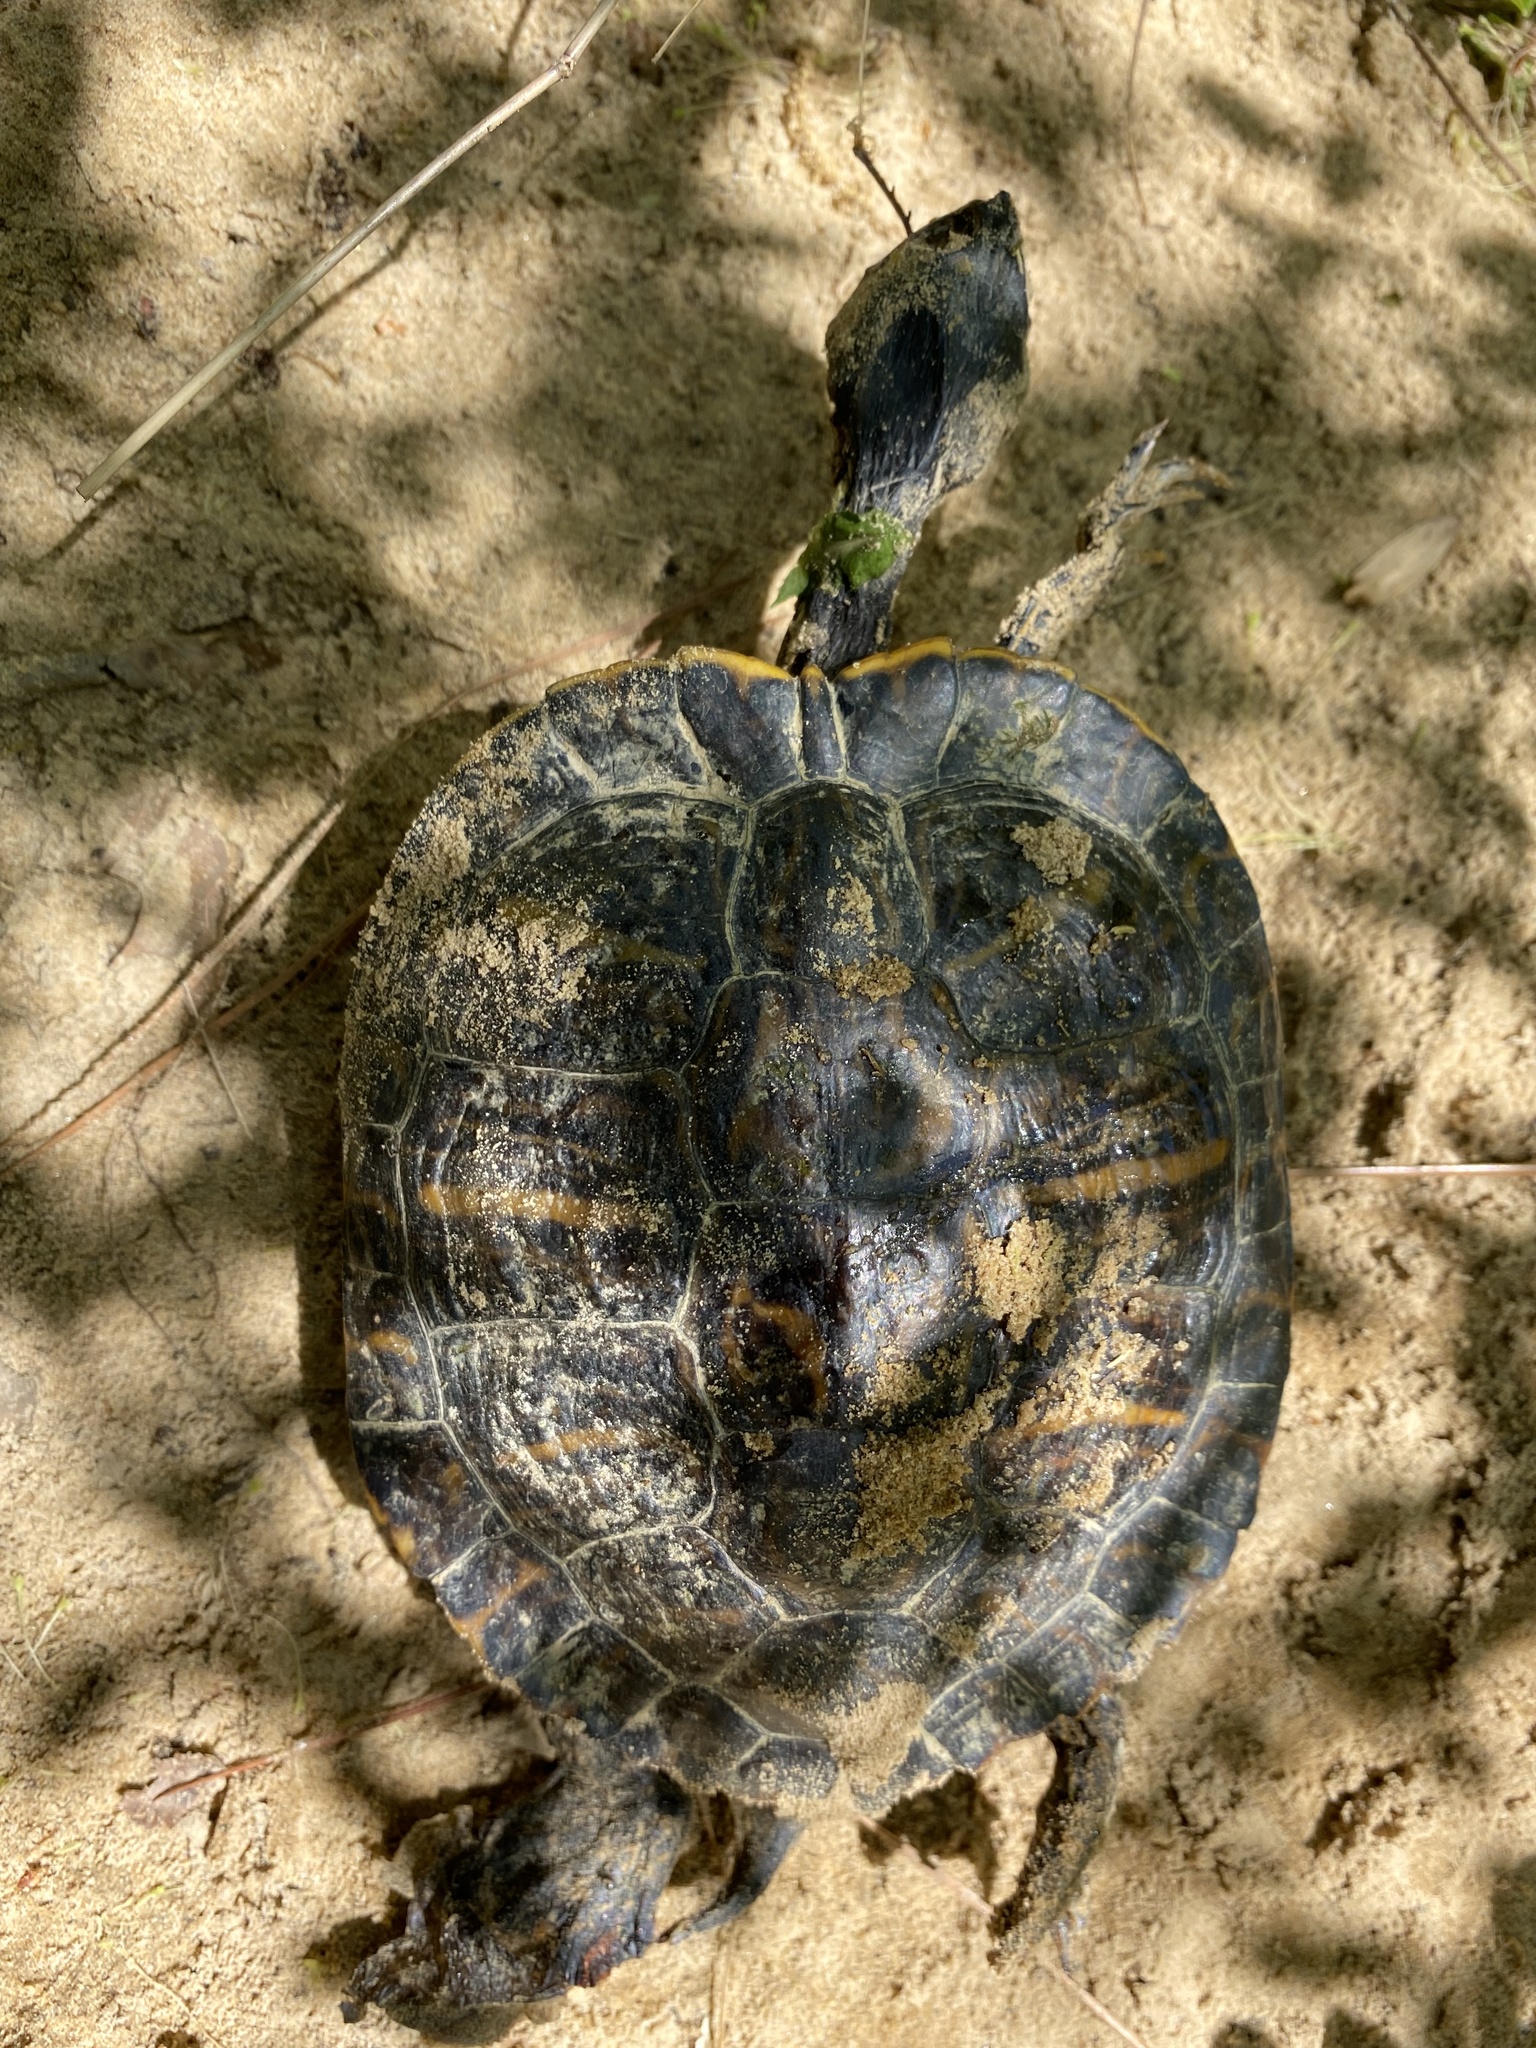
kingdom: Animalia
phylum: Chordata
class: Testudines
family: Emydidae
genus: Trachemys
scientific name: Trachemys scripta
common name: Slider
